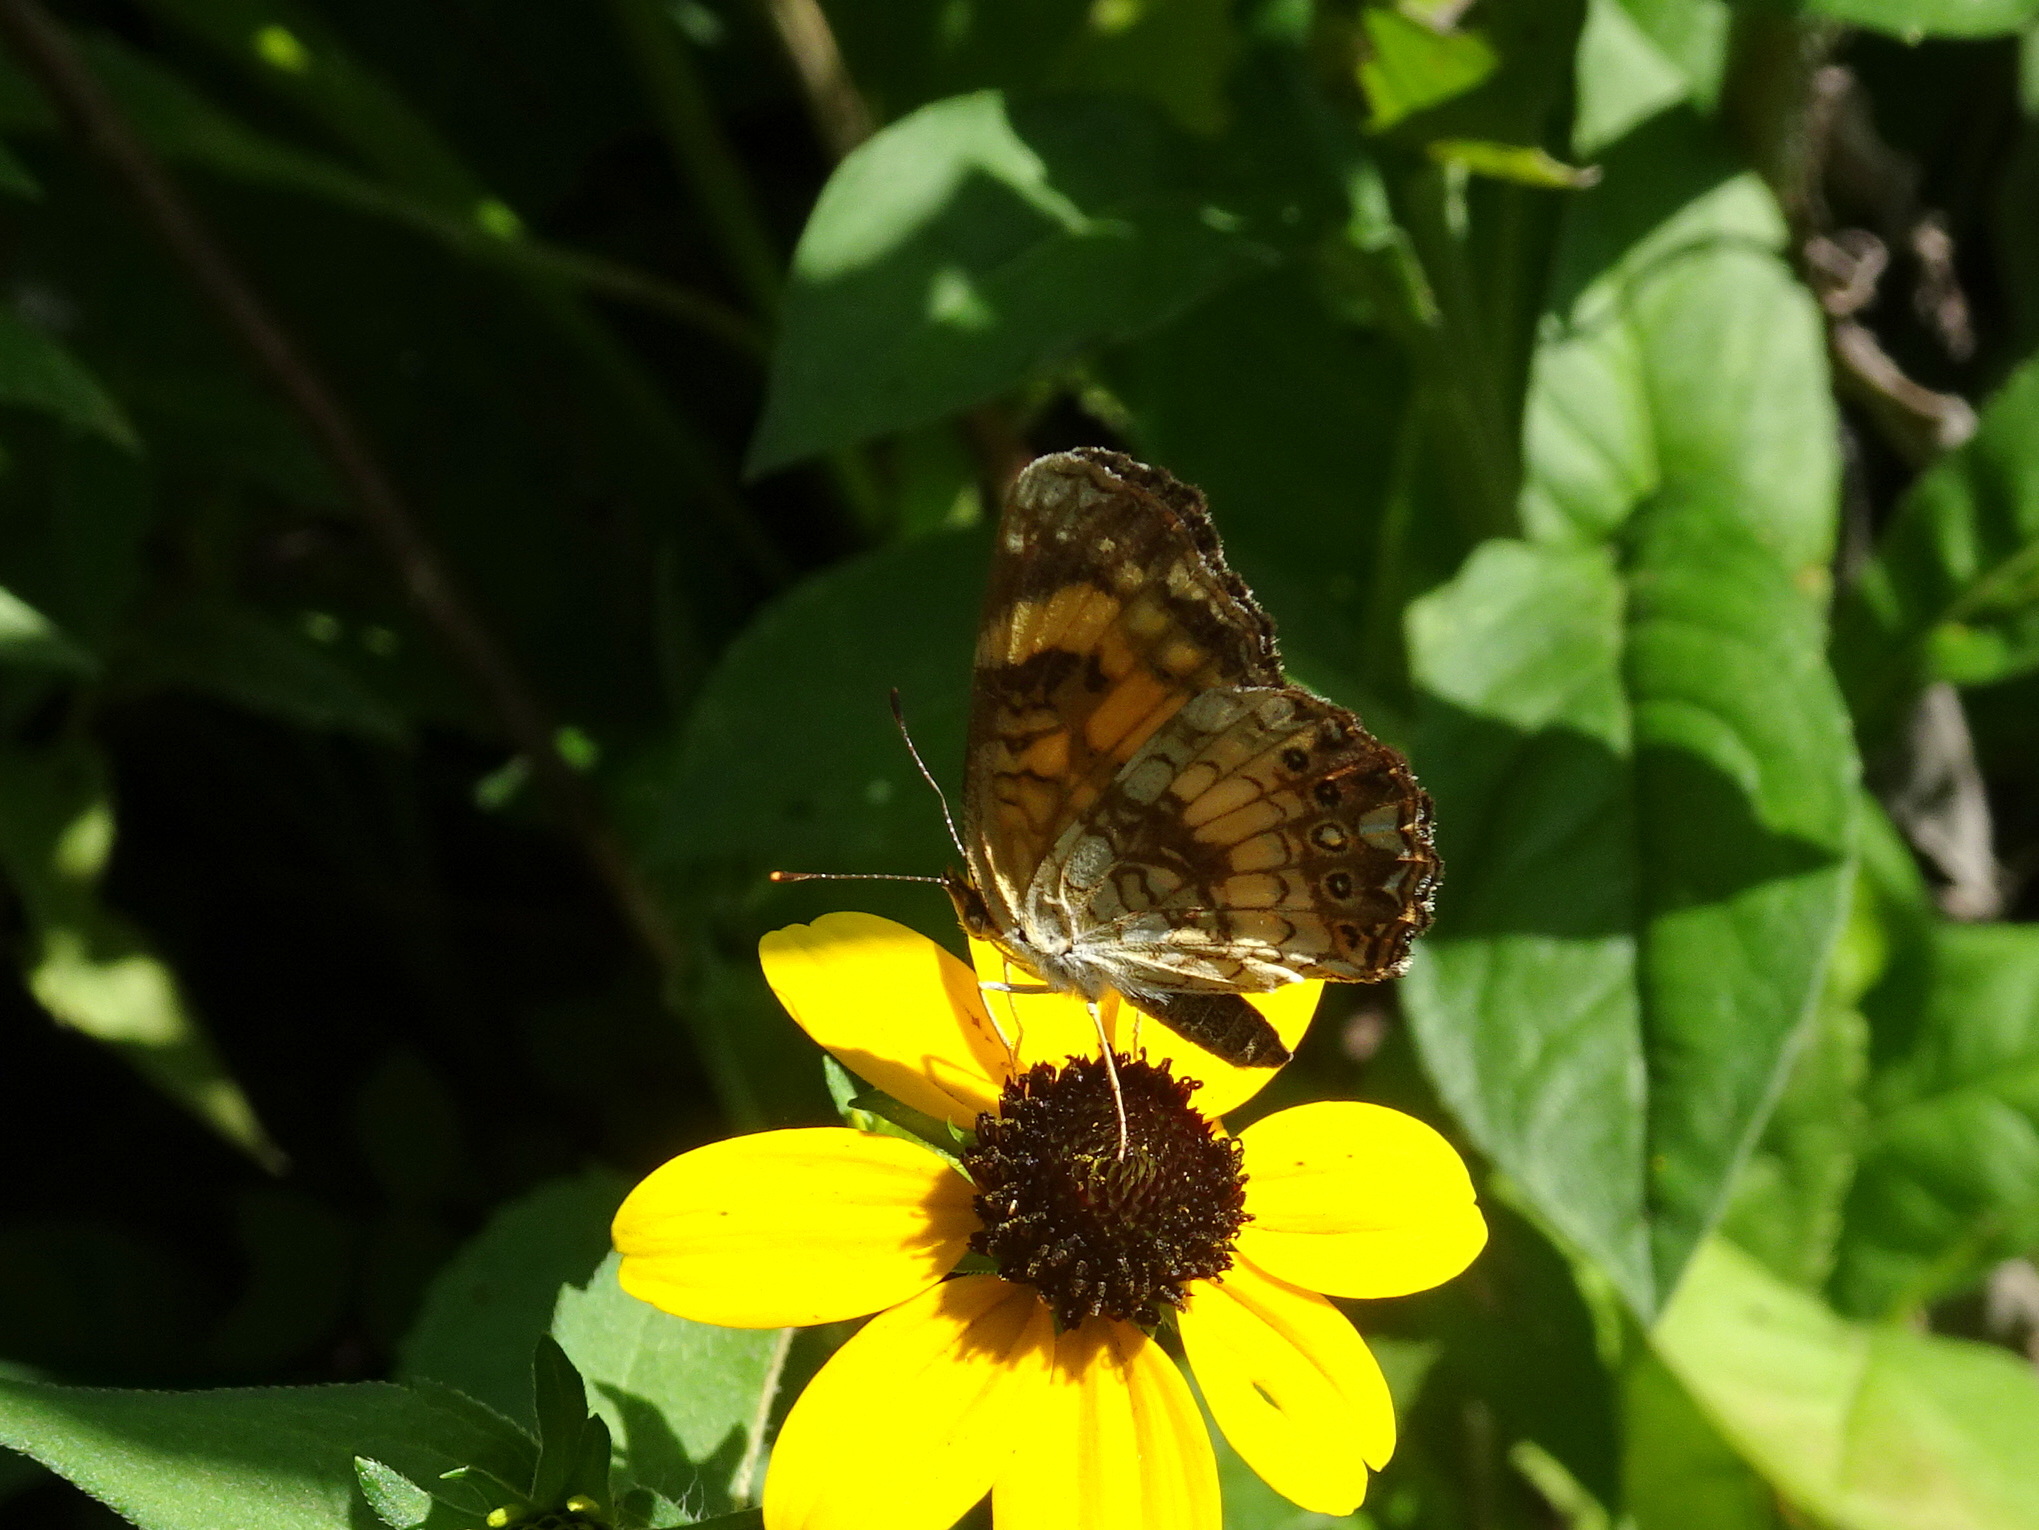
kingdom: Animalia
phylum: Arthropoda
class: Insecta
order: Lepidoptera
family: Nymphalidae
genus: Chlosyne
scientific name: Chlosyne nycteis
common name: Silvery checkerspot
